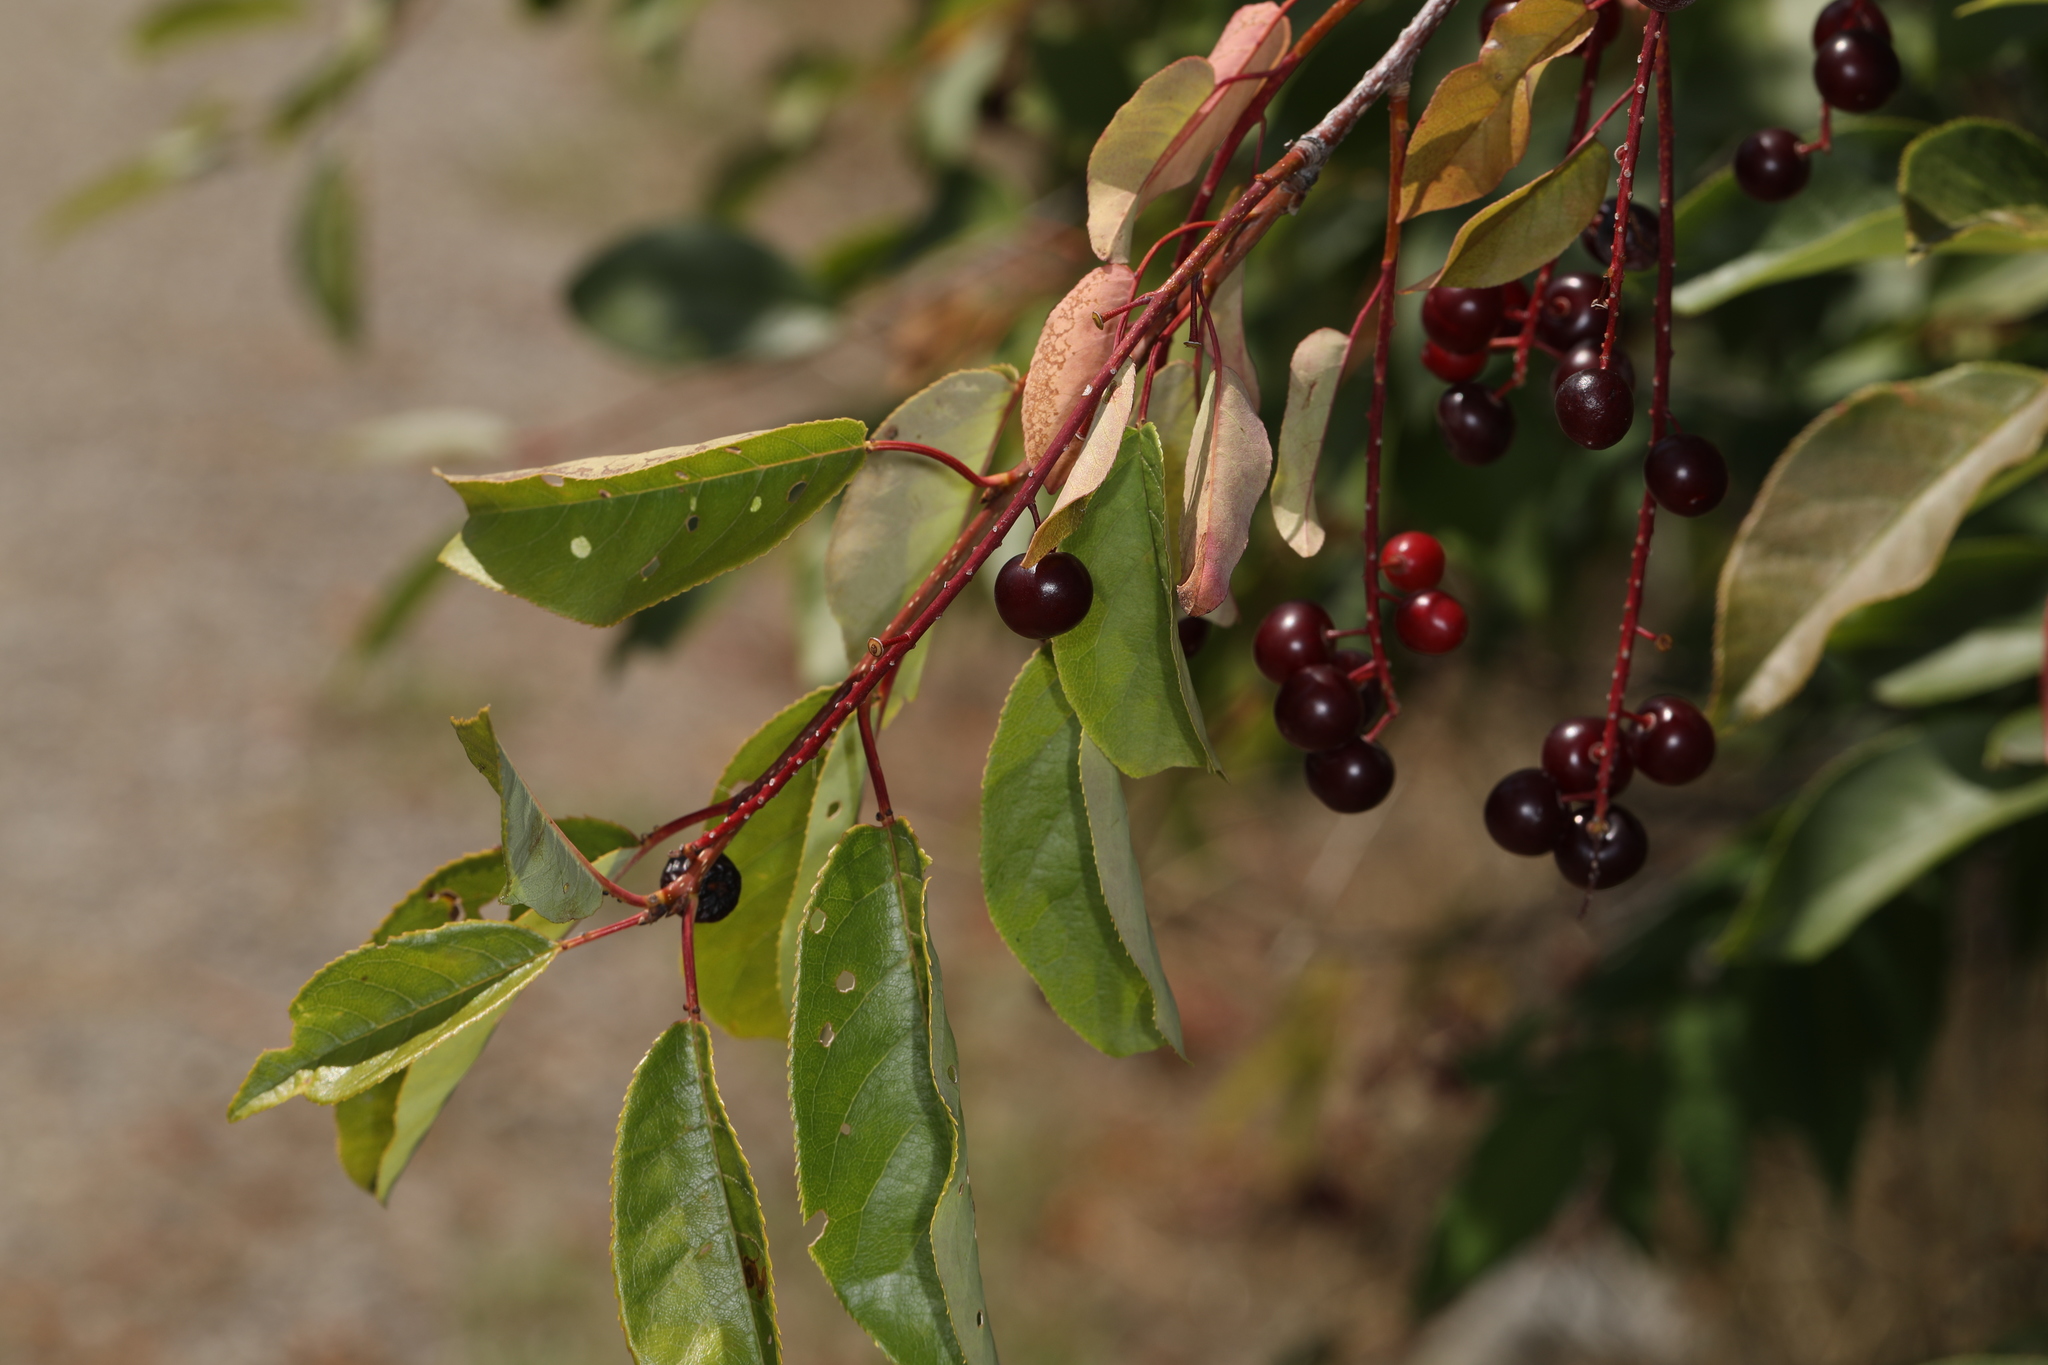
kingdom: Plantae
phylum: Tracheophyta
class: Magnoliopsida
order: Rosales
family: Rosaceae
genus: Prunus
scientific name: Prunus virginiana
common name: Chokecherry
